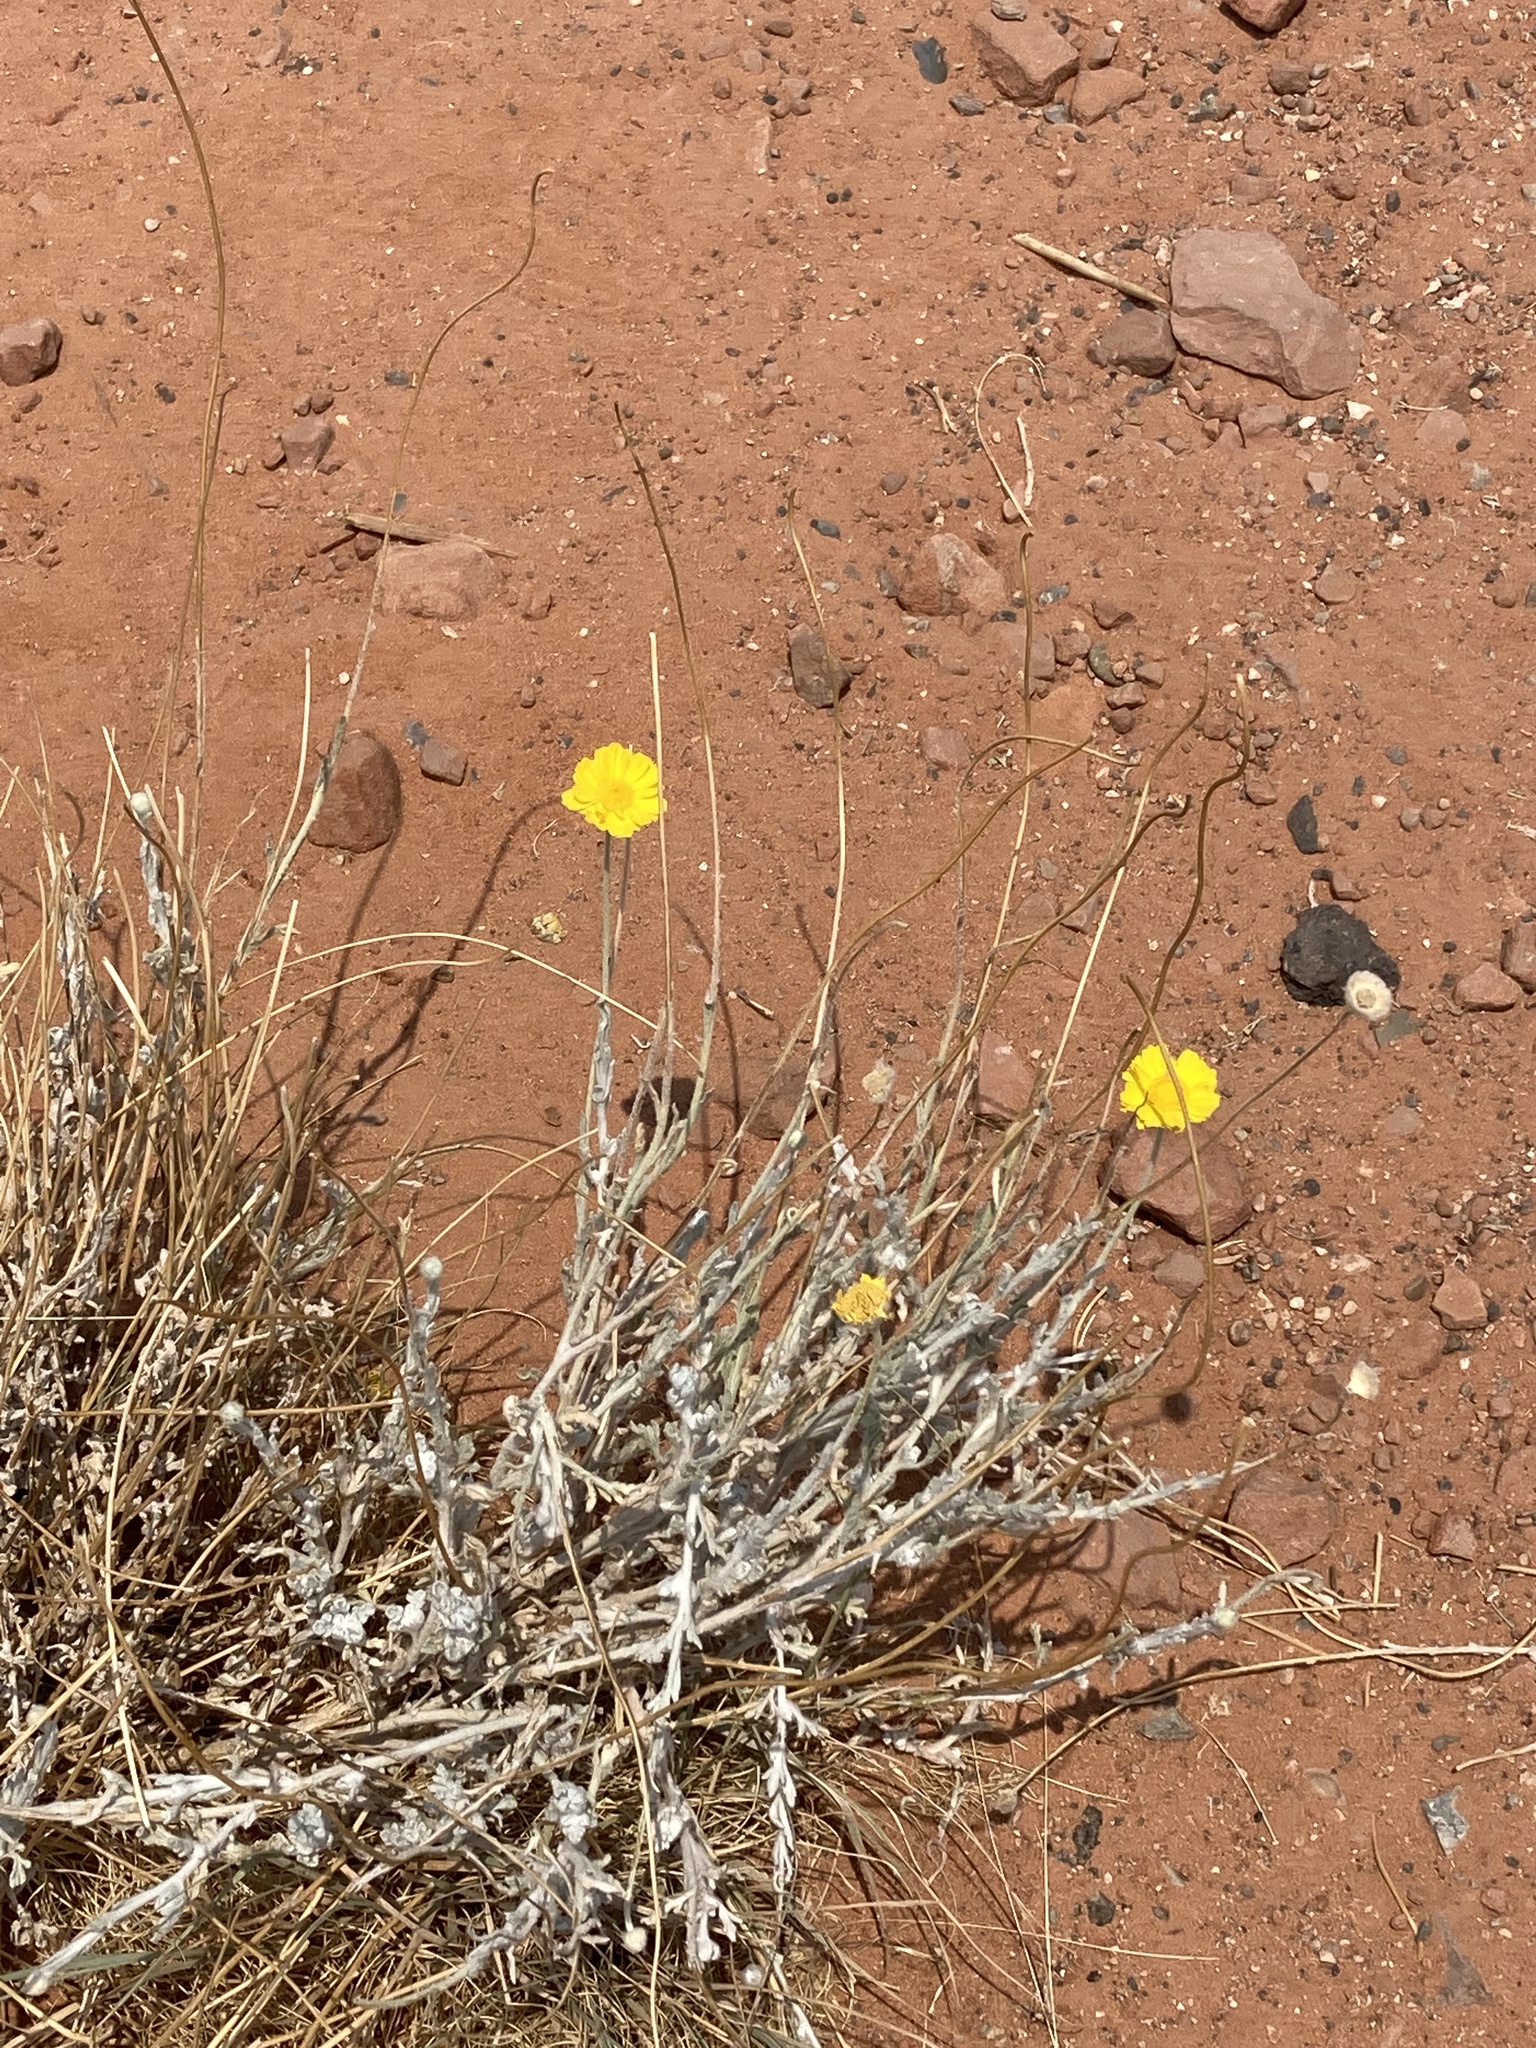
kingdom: Plantae
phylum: Tracheophyta
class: Magnoliopsida
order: Asterales
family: Asteraceae
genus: Baileya
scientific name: Baileya multiradiata
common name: Desert-marigold
